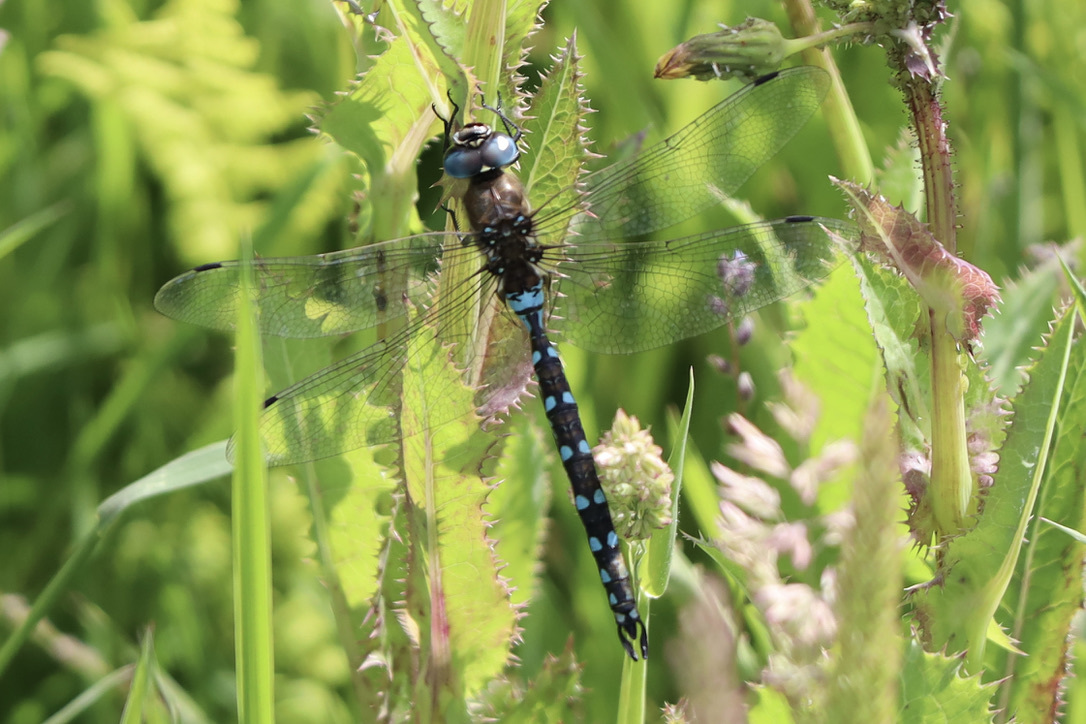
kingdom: Animalia
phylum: Arthropoda
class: Insecta
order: Odonata
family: Aeshnidae
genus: Rhionaeschna
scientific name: Rhionaeschna californica
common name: California darner
